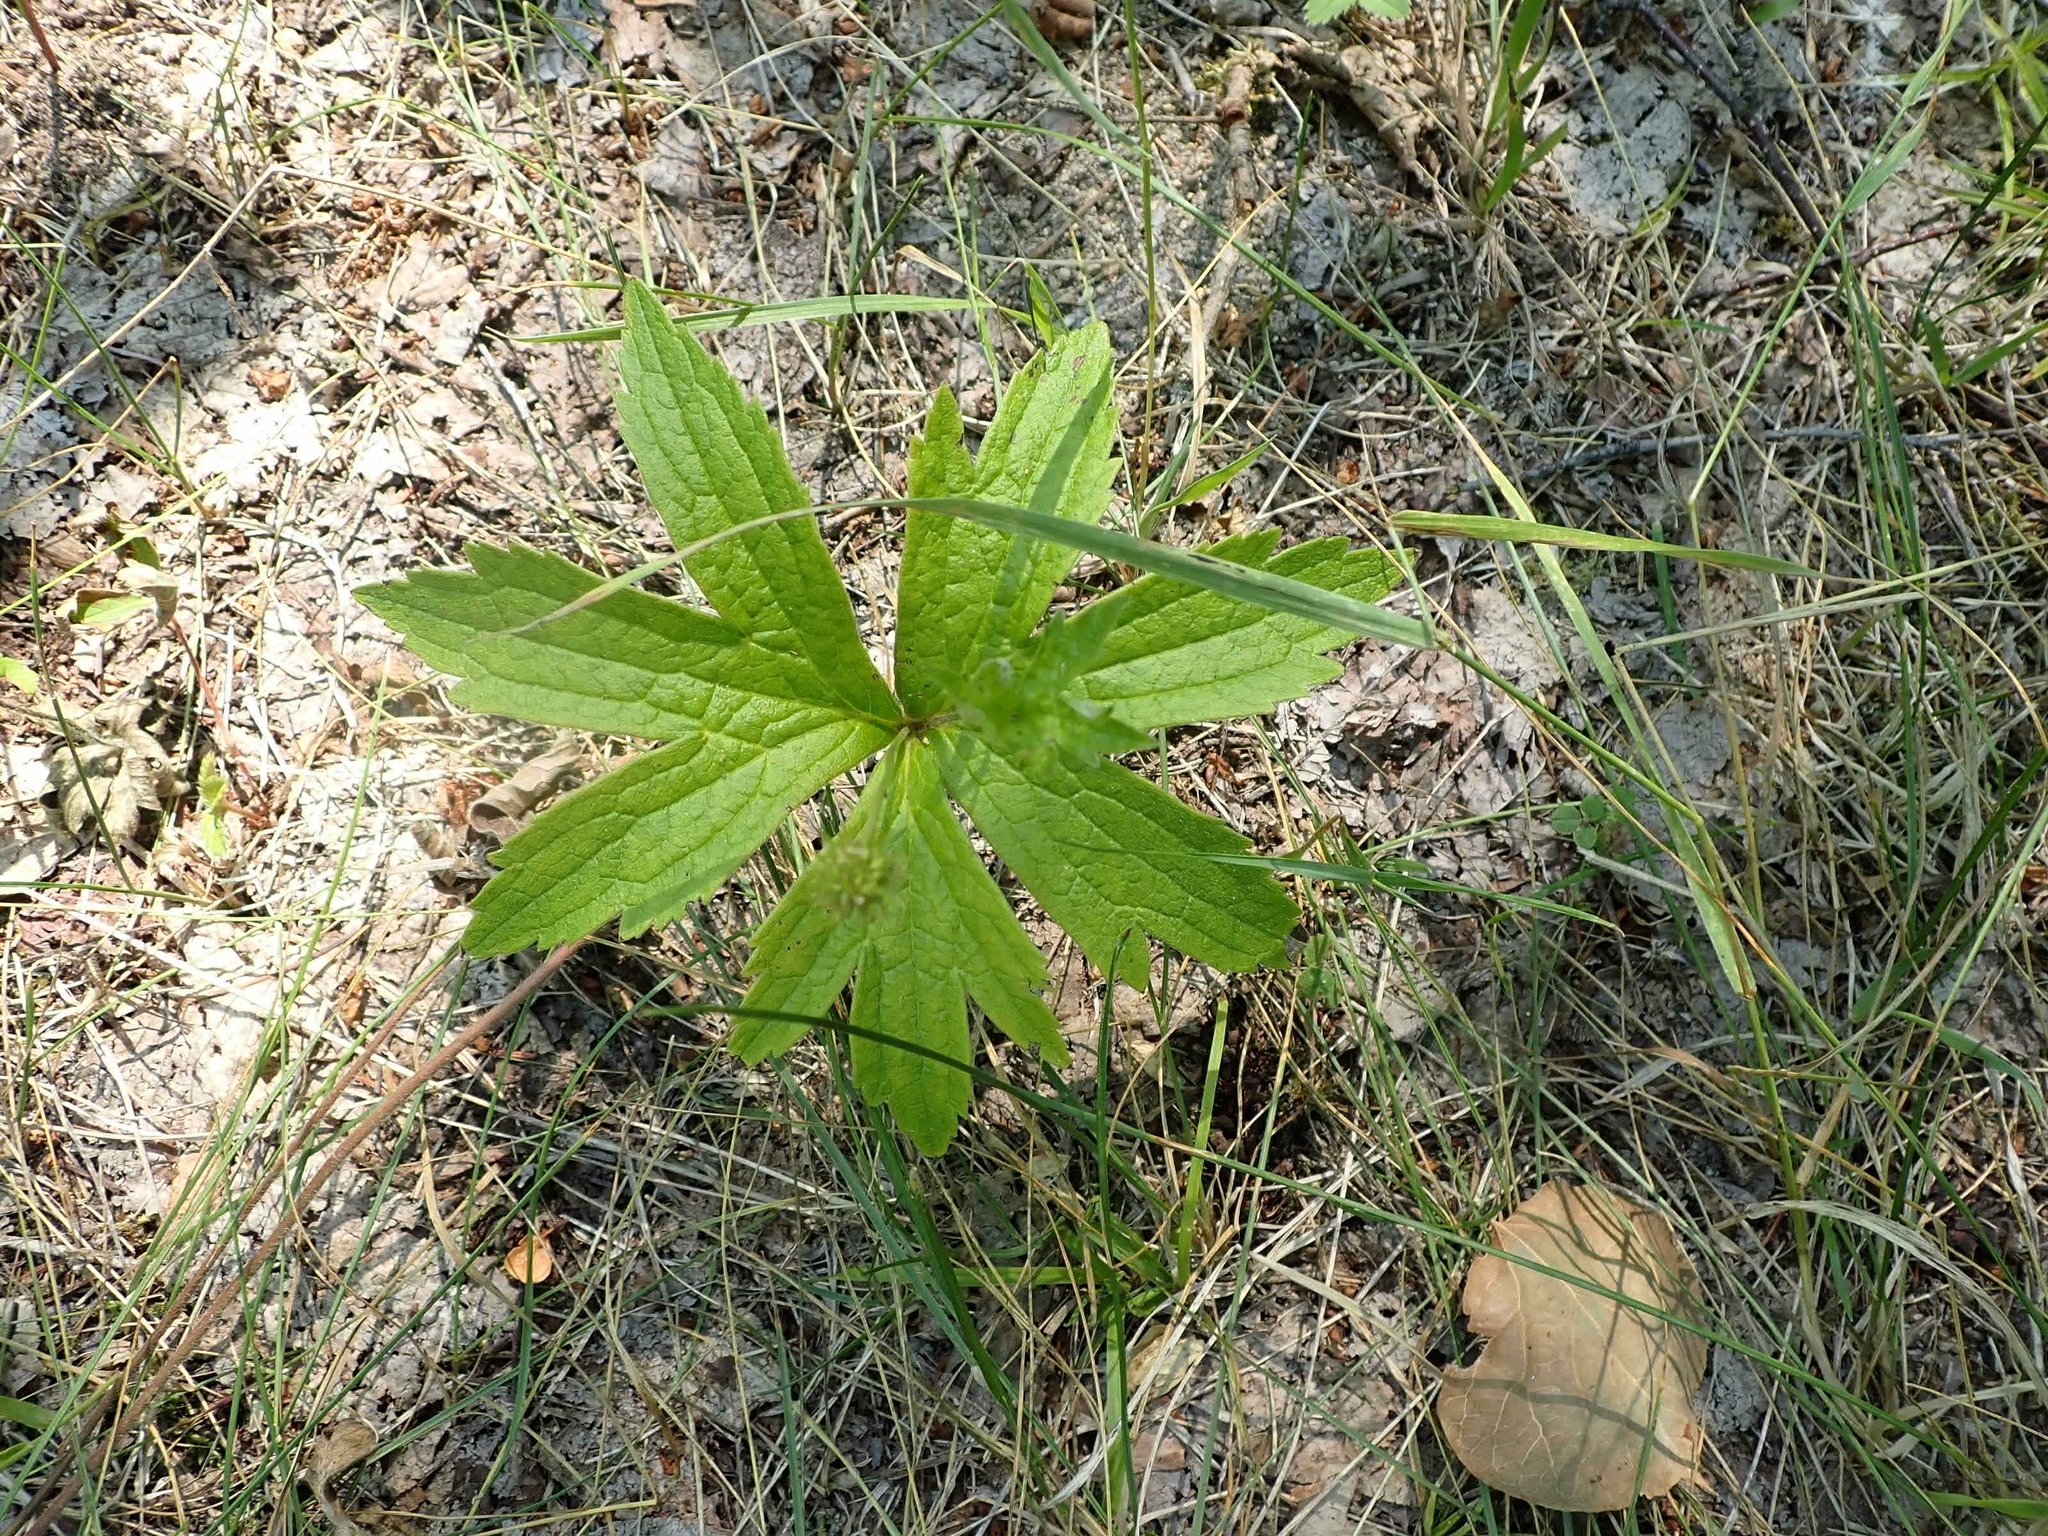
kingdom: Plantae
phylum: Tracheophyta
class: Magnoliopsida
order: Ranunculales
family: Ranunculaceae
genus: Anemonastrum
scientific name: Anemonastrum canadense
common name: Canada anemone
